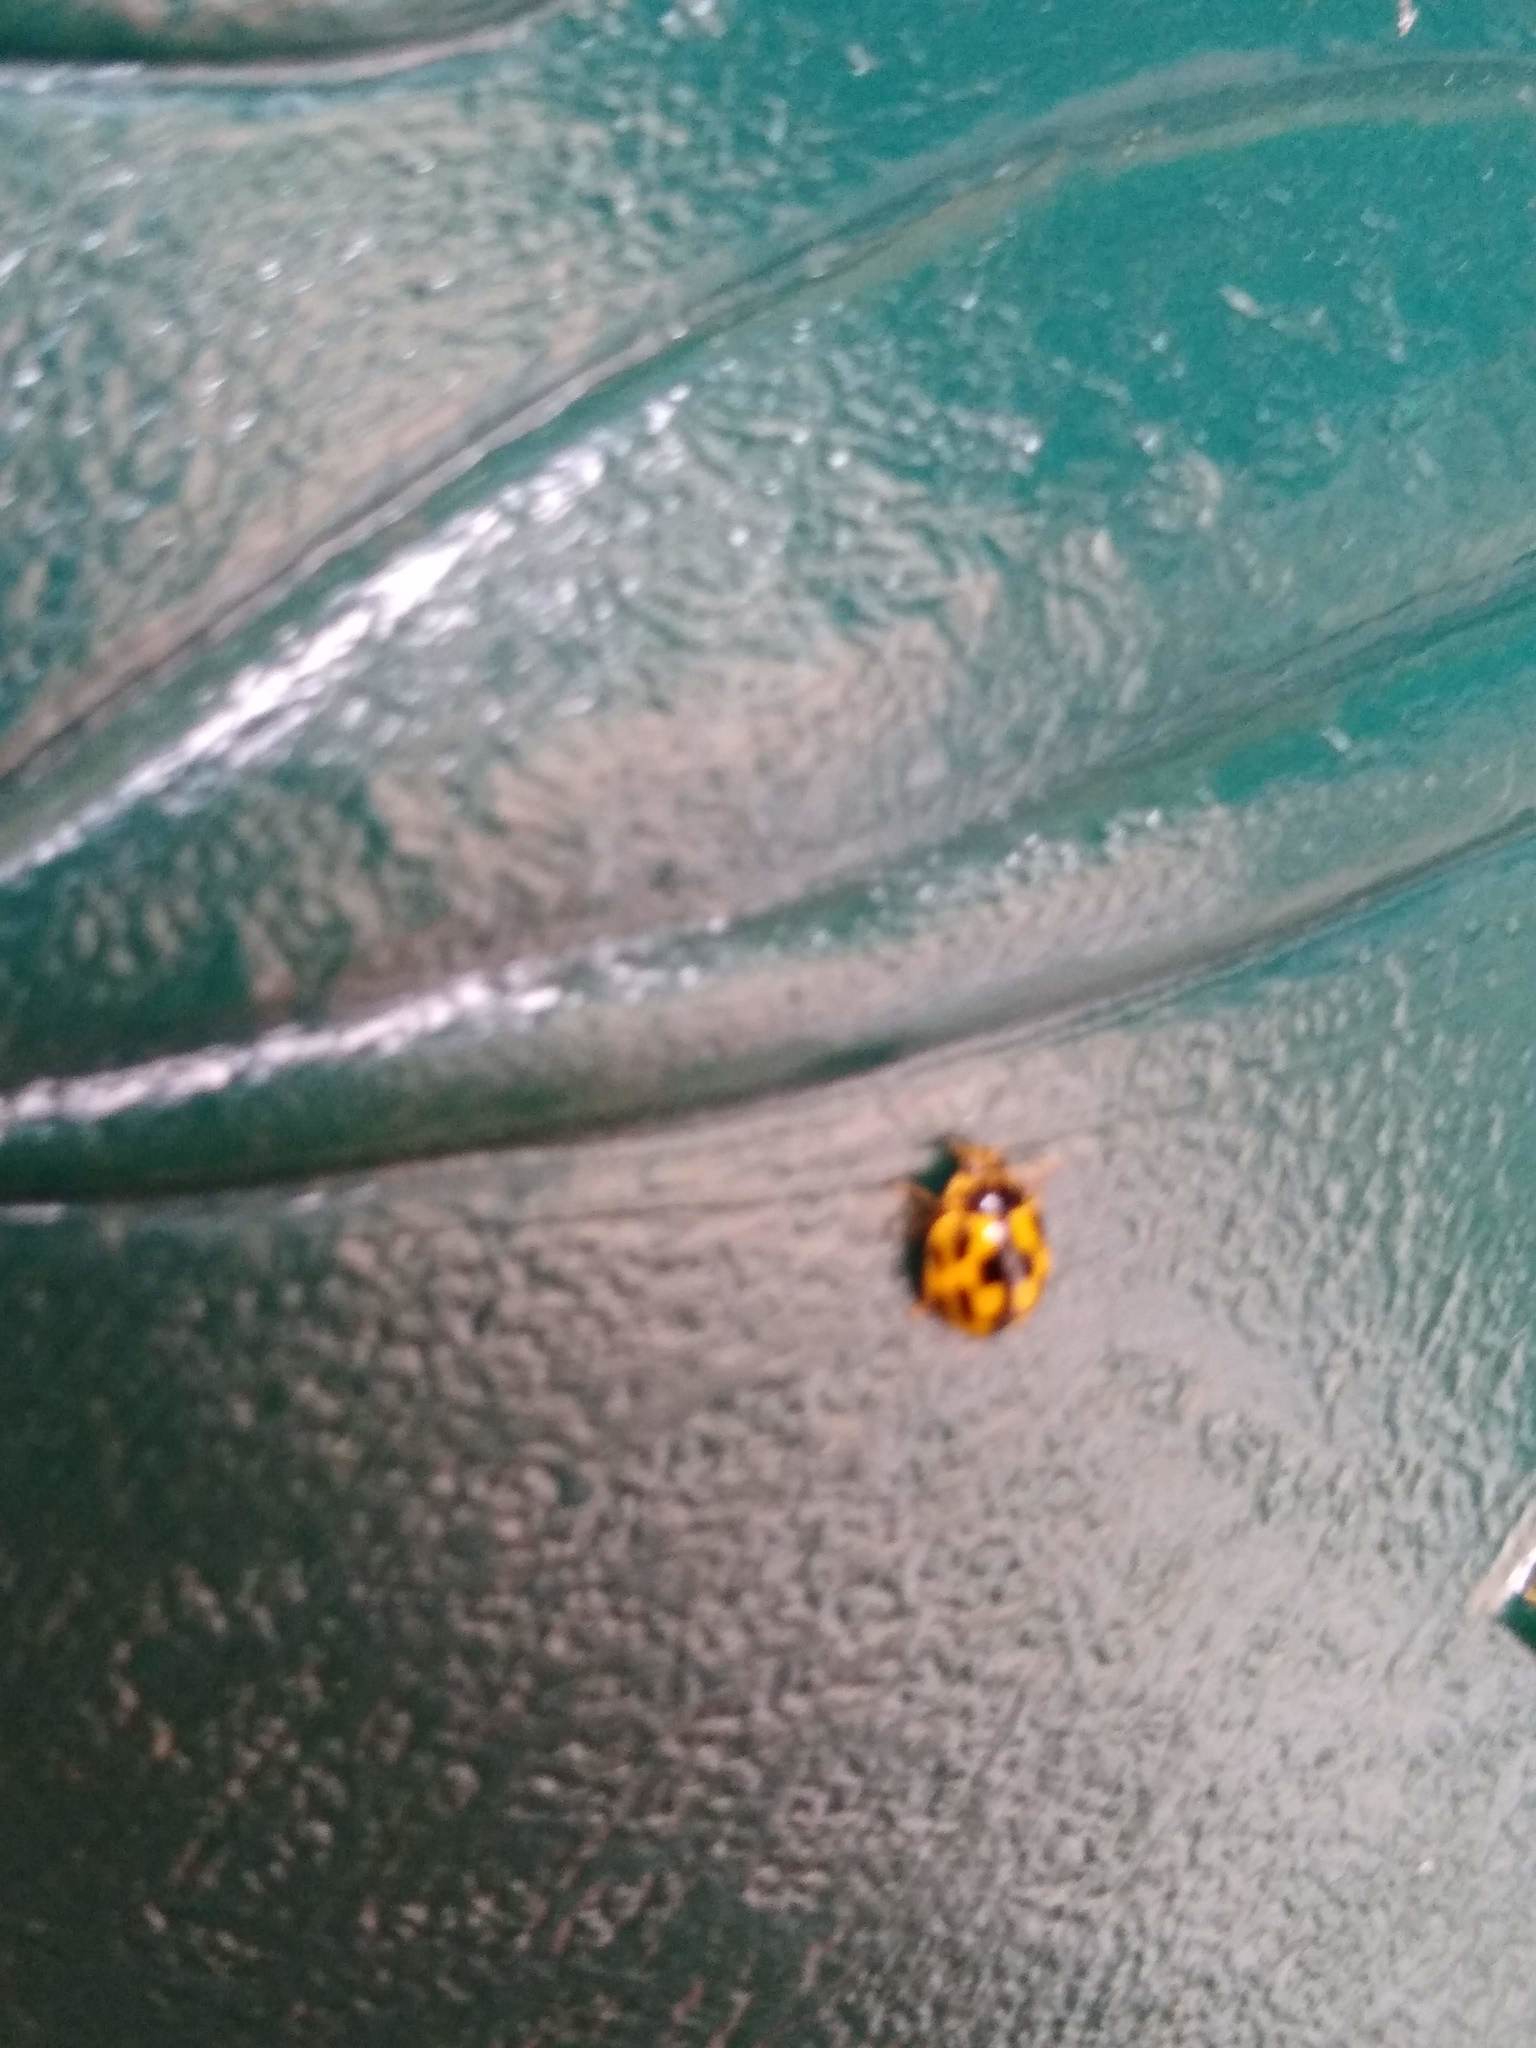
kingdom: Animalia
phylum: Arthropoda
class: Insecta
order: Coleoptera
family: Coccinellidae
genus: Propylaea
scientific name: Propylaea quatuordecimpunctata
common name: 14-spotted ladybird beetle
